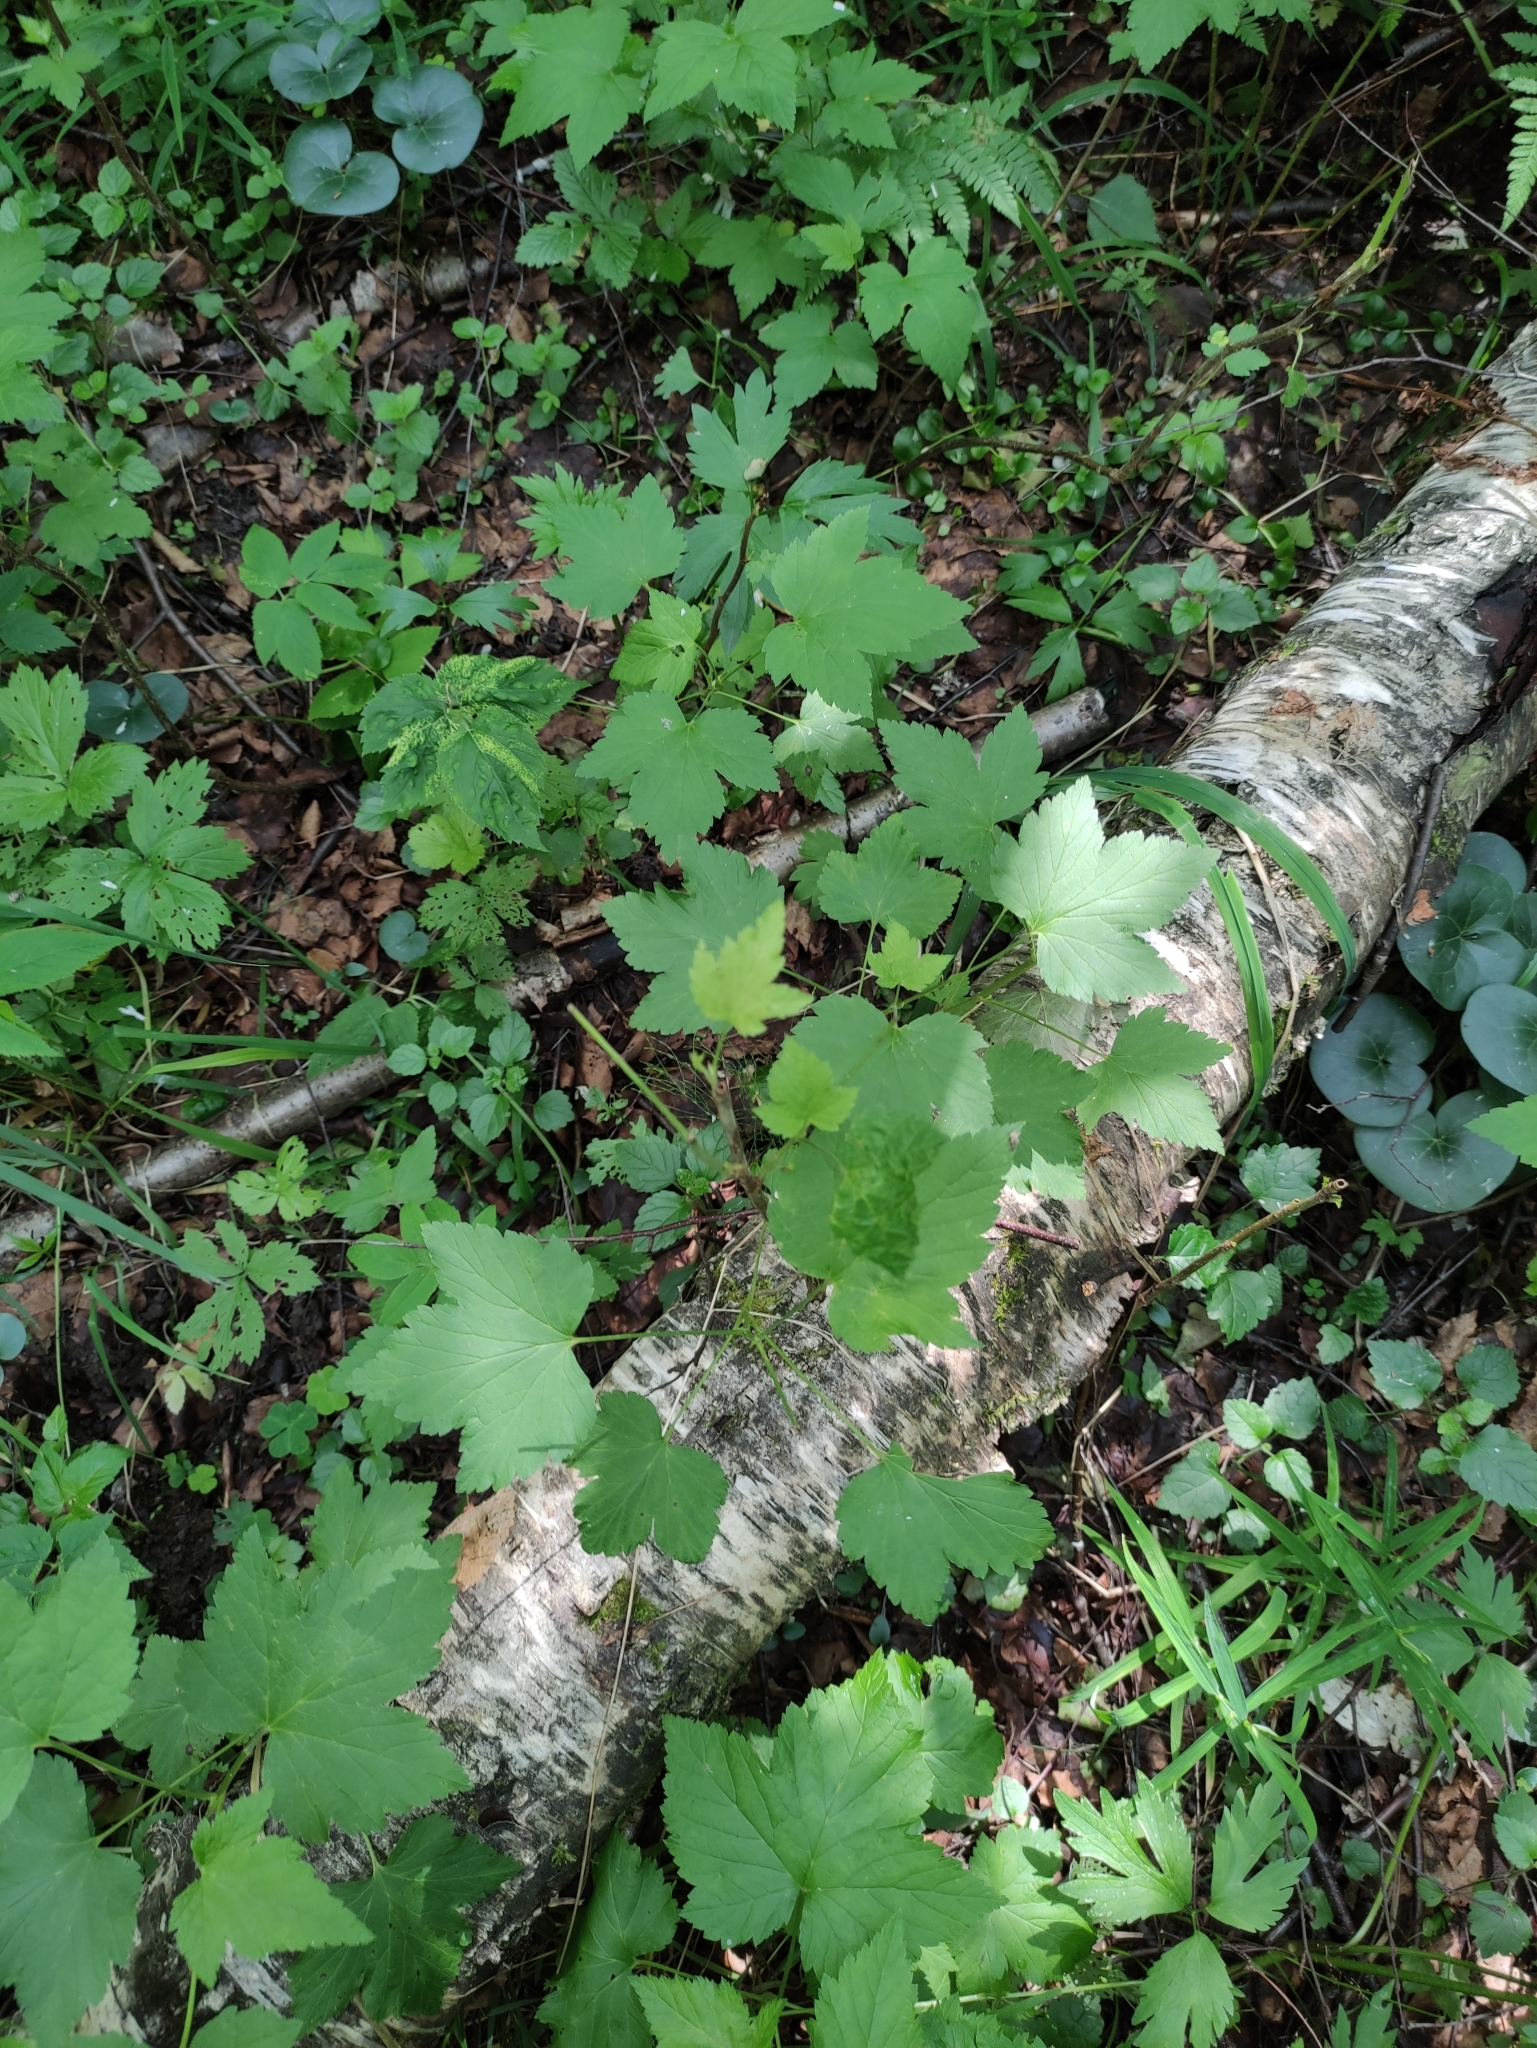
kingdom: Plantae
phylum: Tracheophyta
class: Magnoliopsida
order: Saxifragales
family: Grossulariaceae
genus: Ribes
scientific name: Ribes nigrum
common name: Black currant
